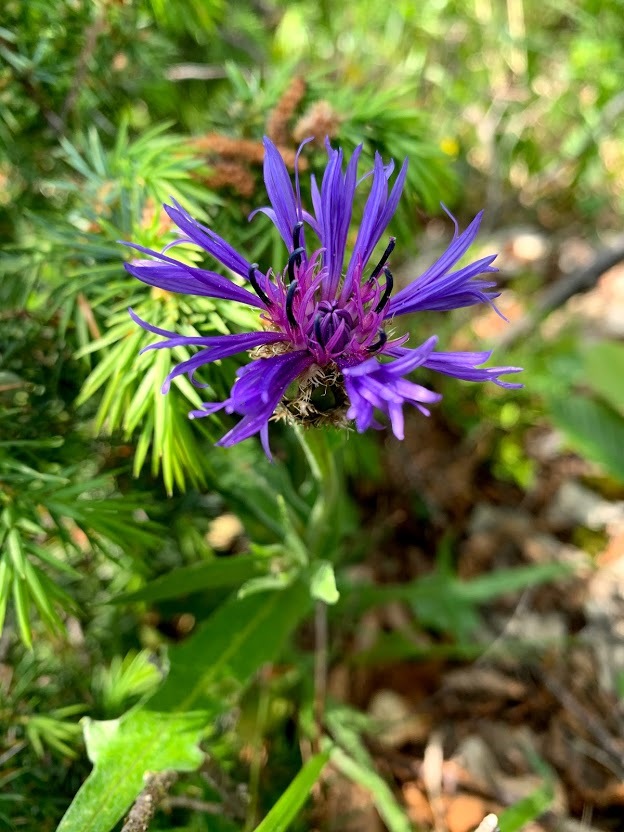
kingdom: Plantae
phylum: Tracheophyta
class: Magnoliopsida
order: Asterales
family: Asteraceae
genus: Centaurea
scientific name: Centaurea triumfettii
